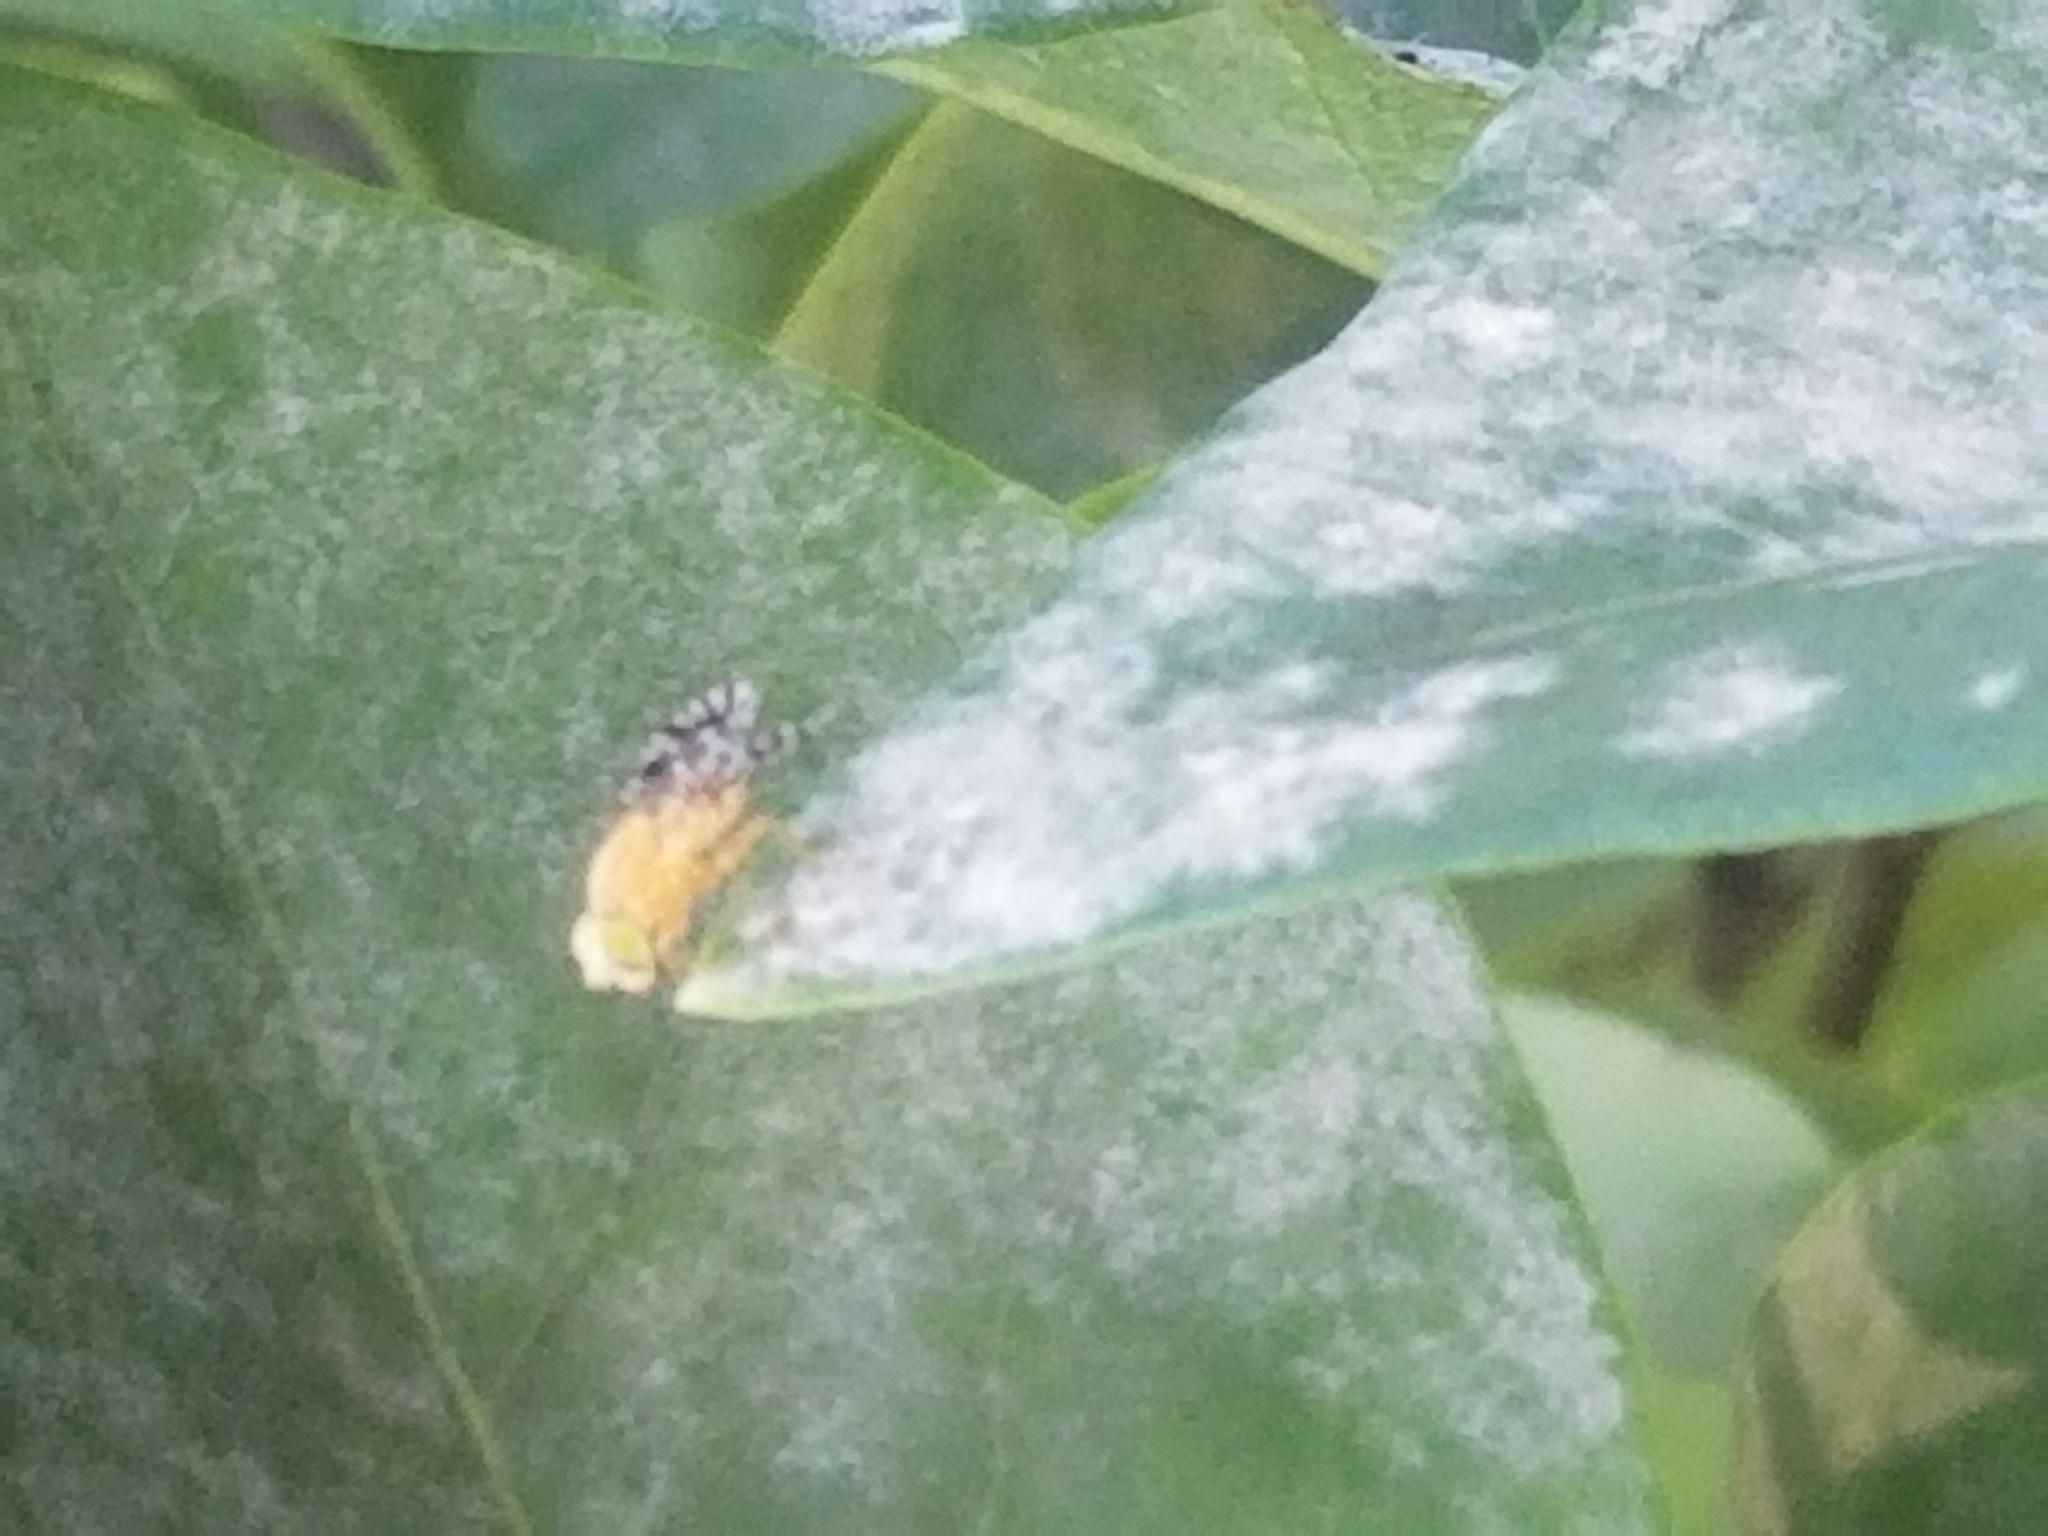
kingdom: Animalia
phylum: Arthropoda
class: Insecta
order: Diptera
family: Tephritidae
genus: Euaresta
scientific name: Euaresta festiva
